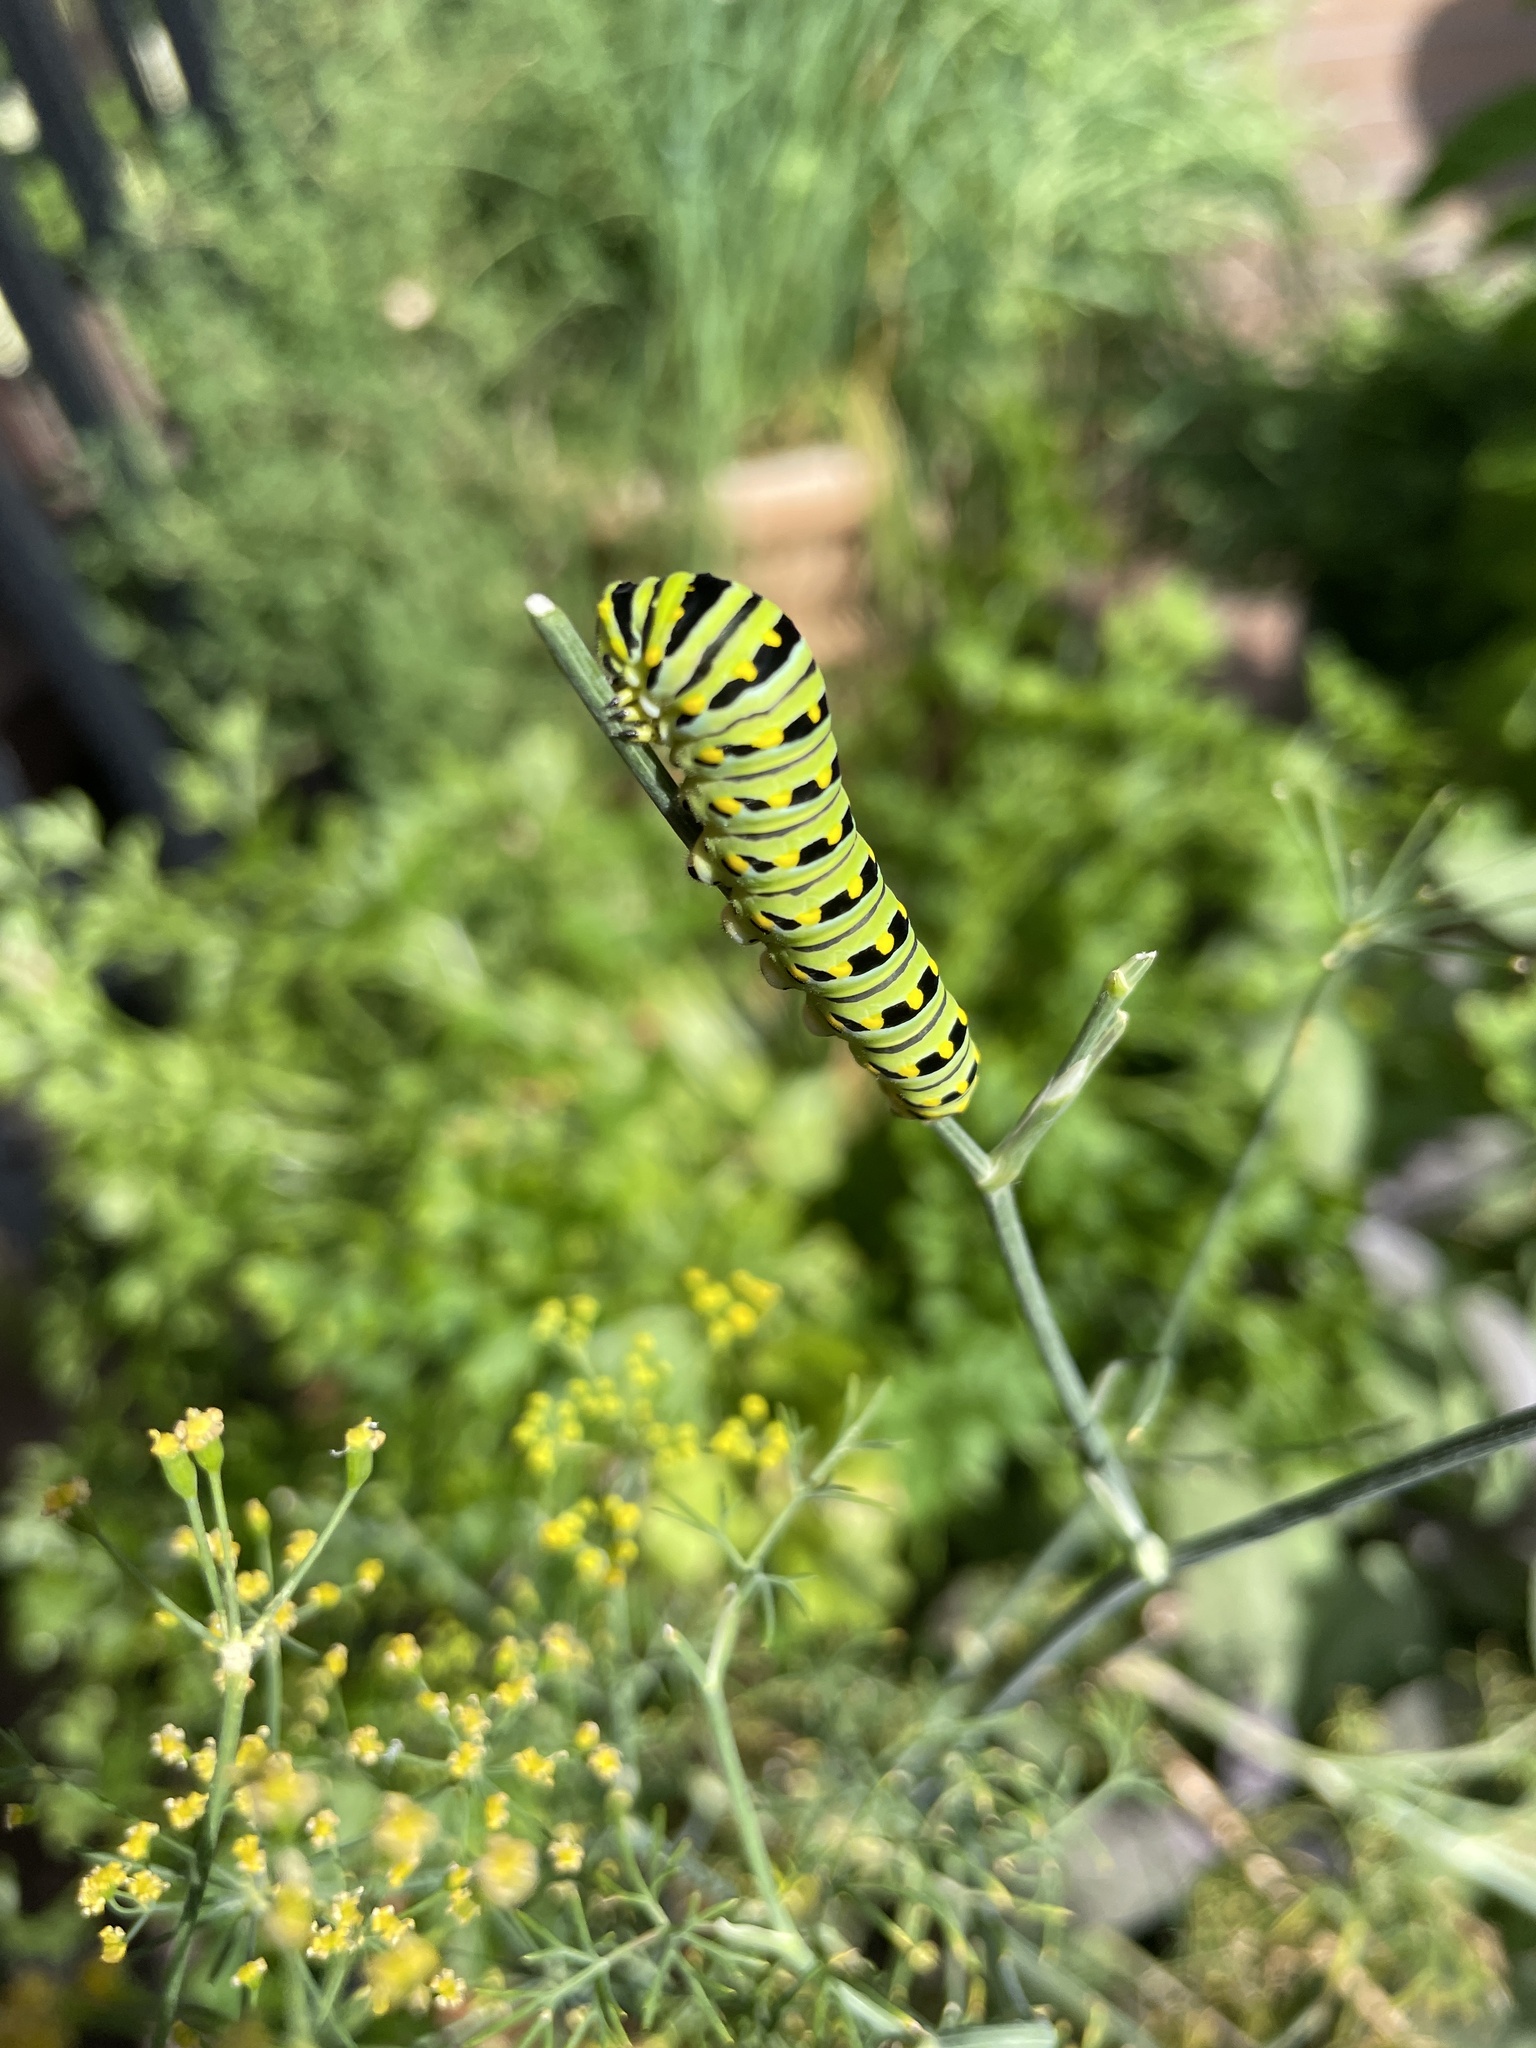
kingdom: Animalia
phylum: Arthropoda
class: Insecta
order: Lepidoptera
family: Papilionidae
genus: Papilio
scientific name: Papilio polyxenes
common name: Black swallowtail
